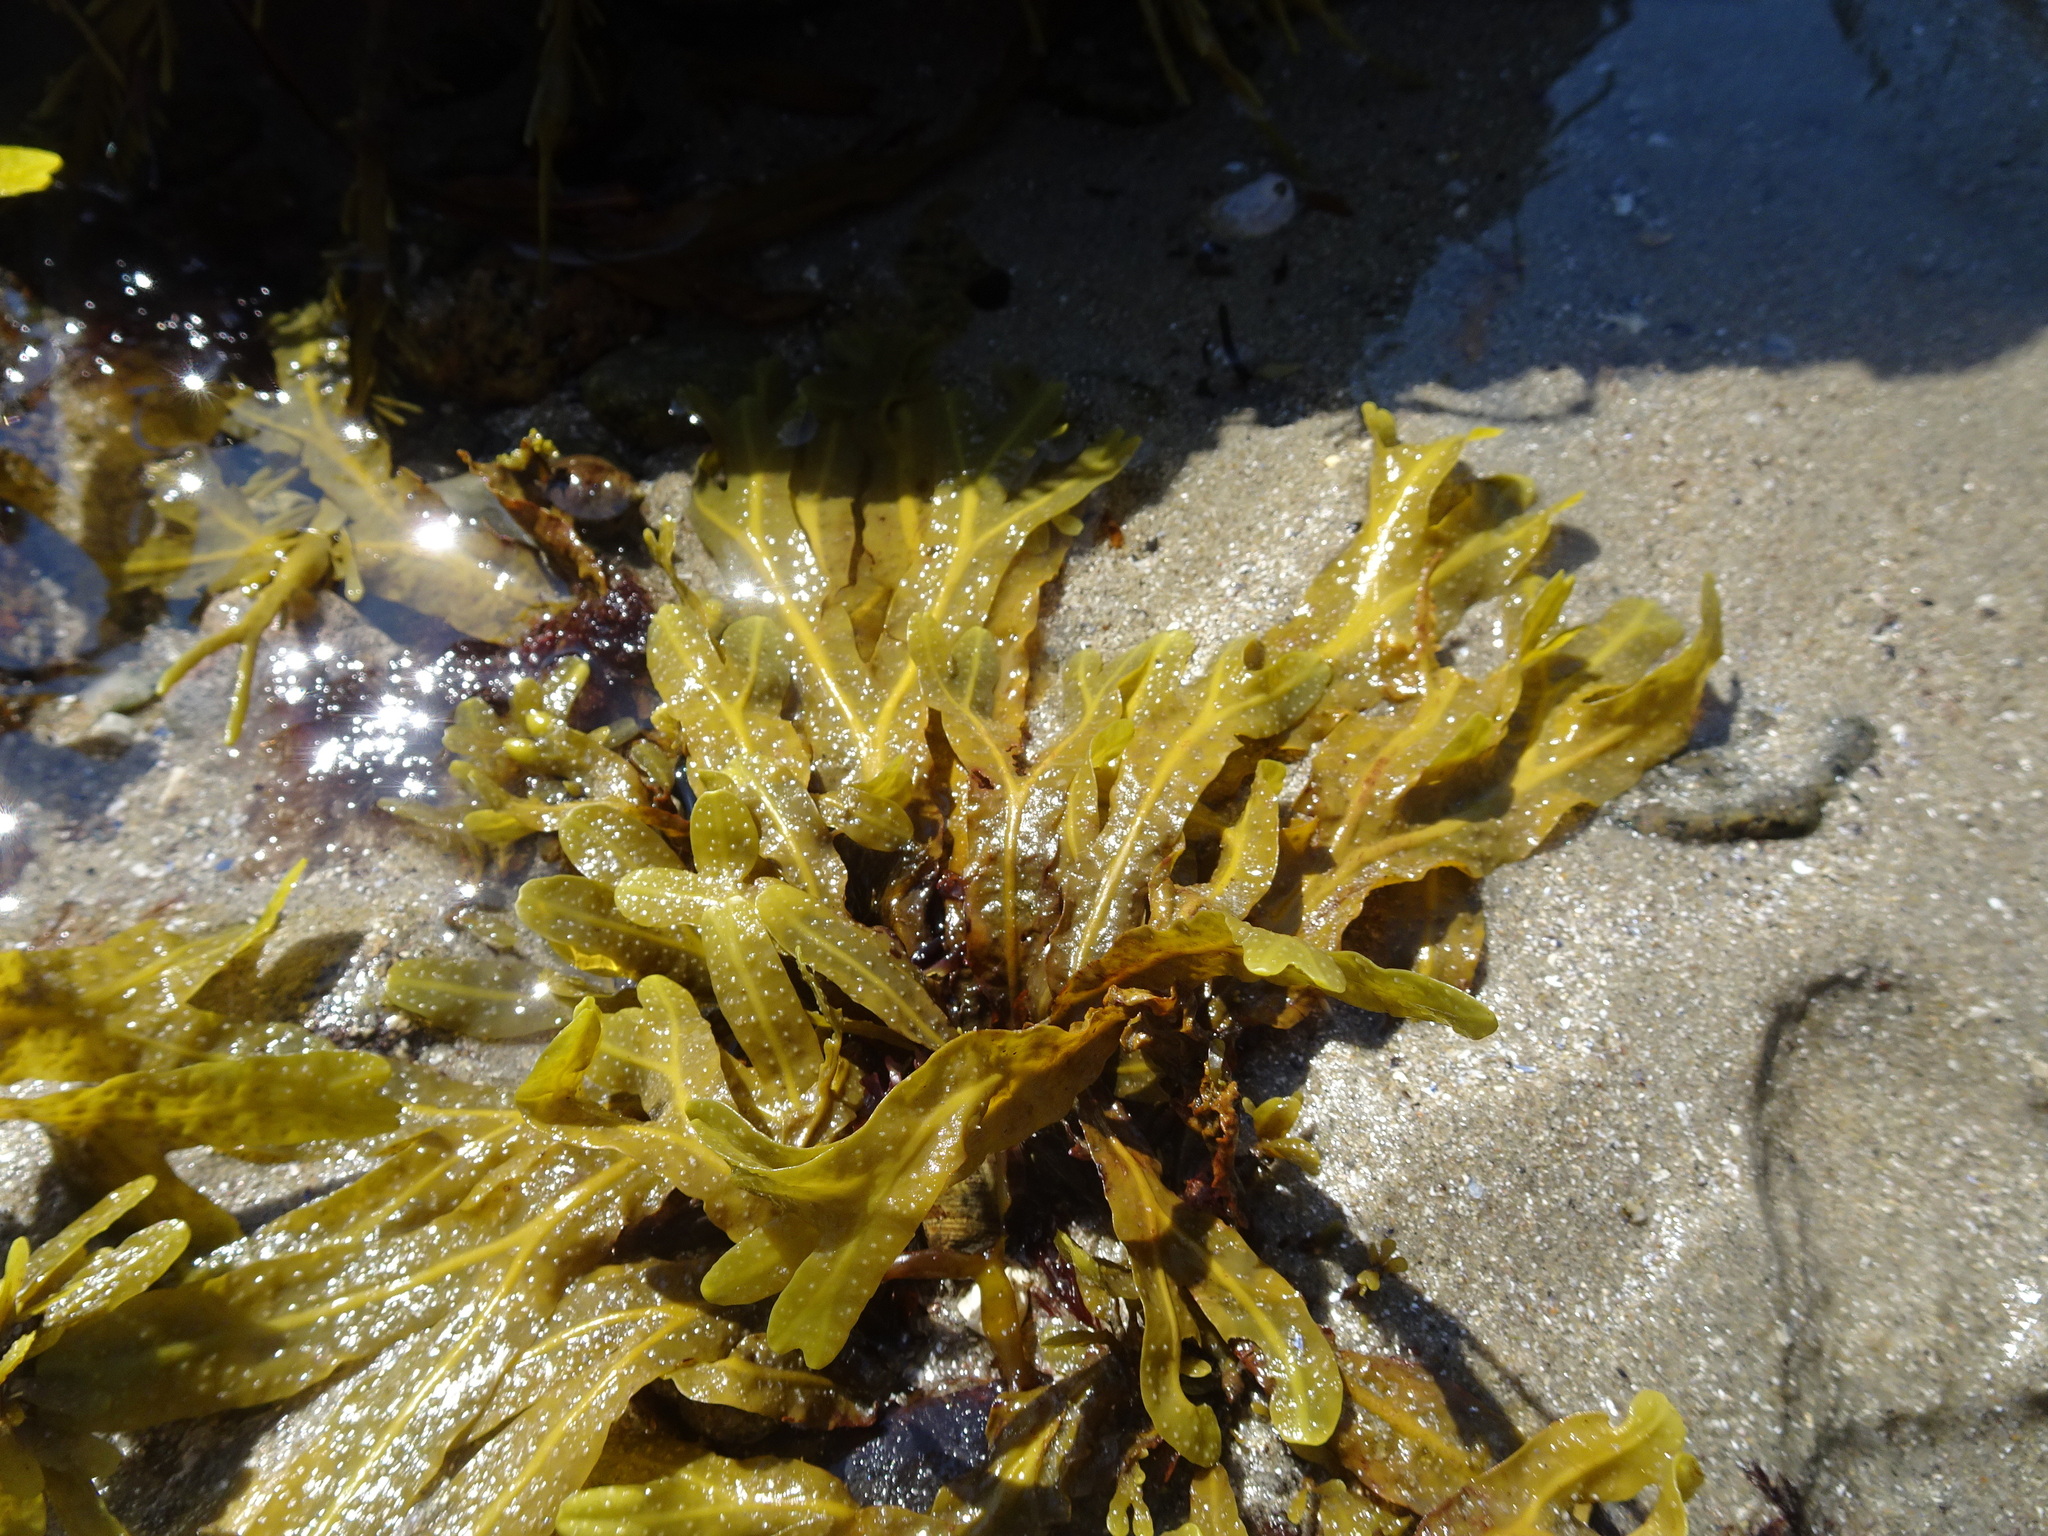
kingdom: Chromista
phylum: Ochrophyta
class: Phaeophyceae
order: Fucales
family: Fucaceae
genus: Fucus
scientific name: Fucus spiralis
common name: Spiral wrack
